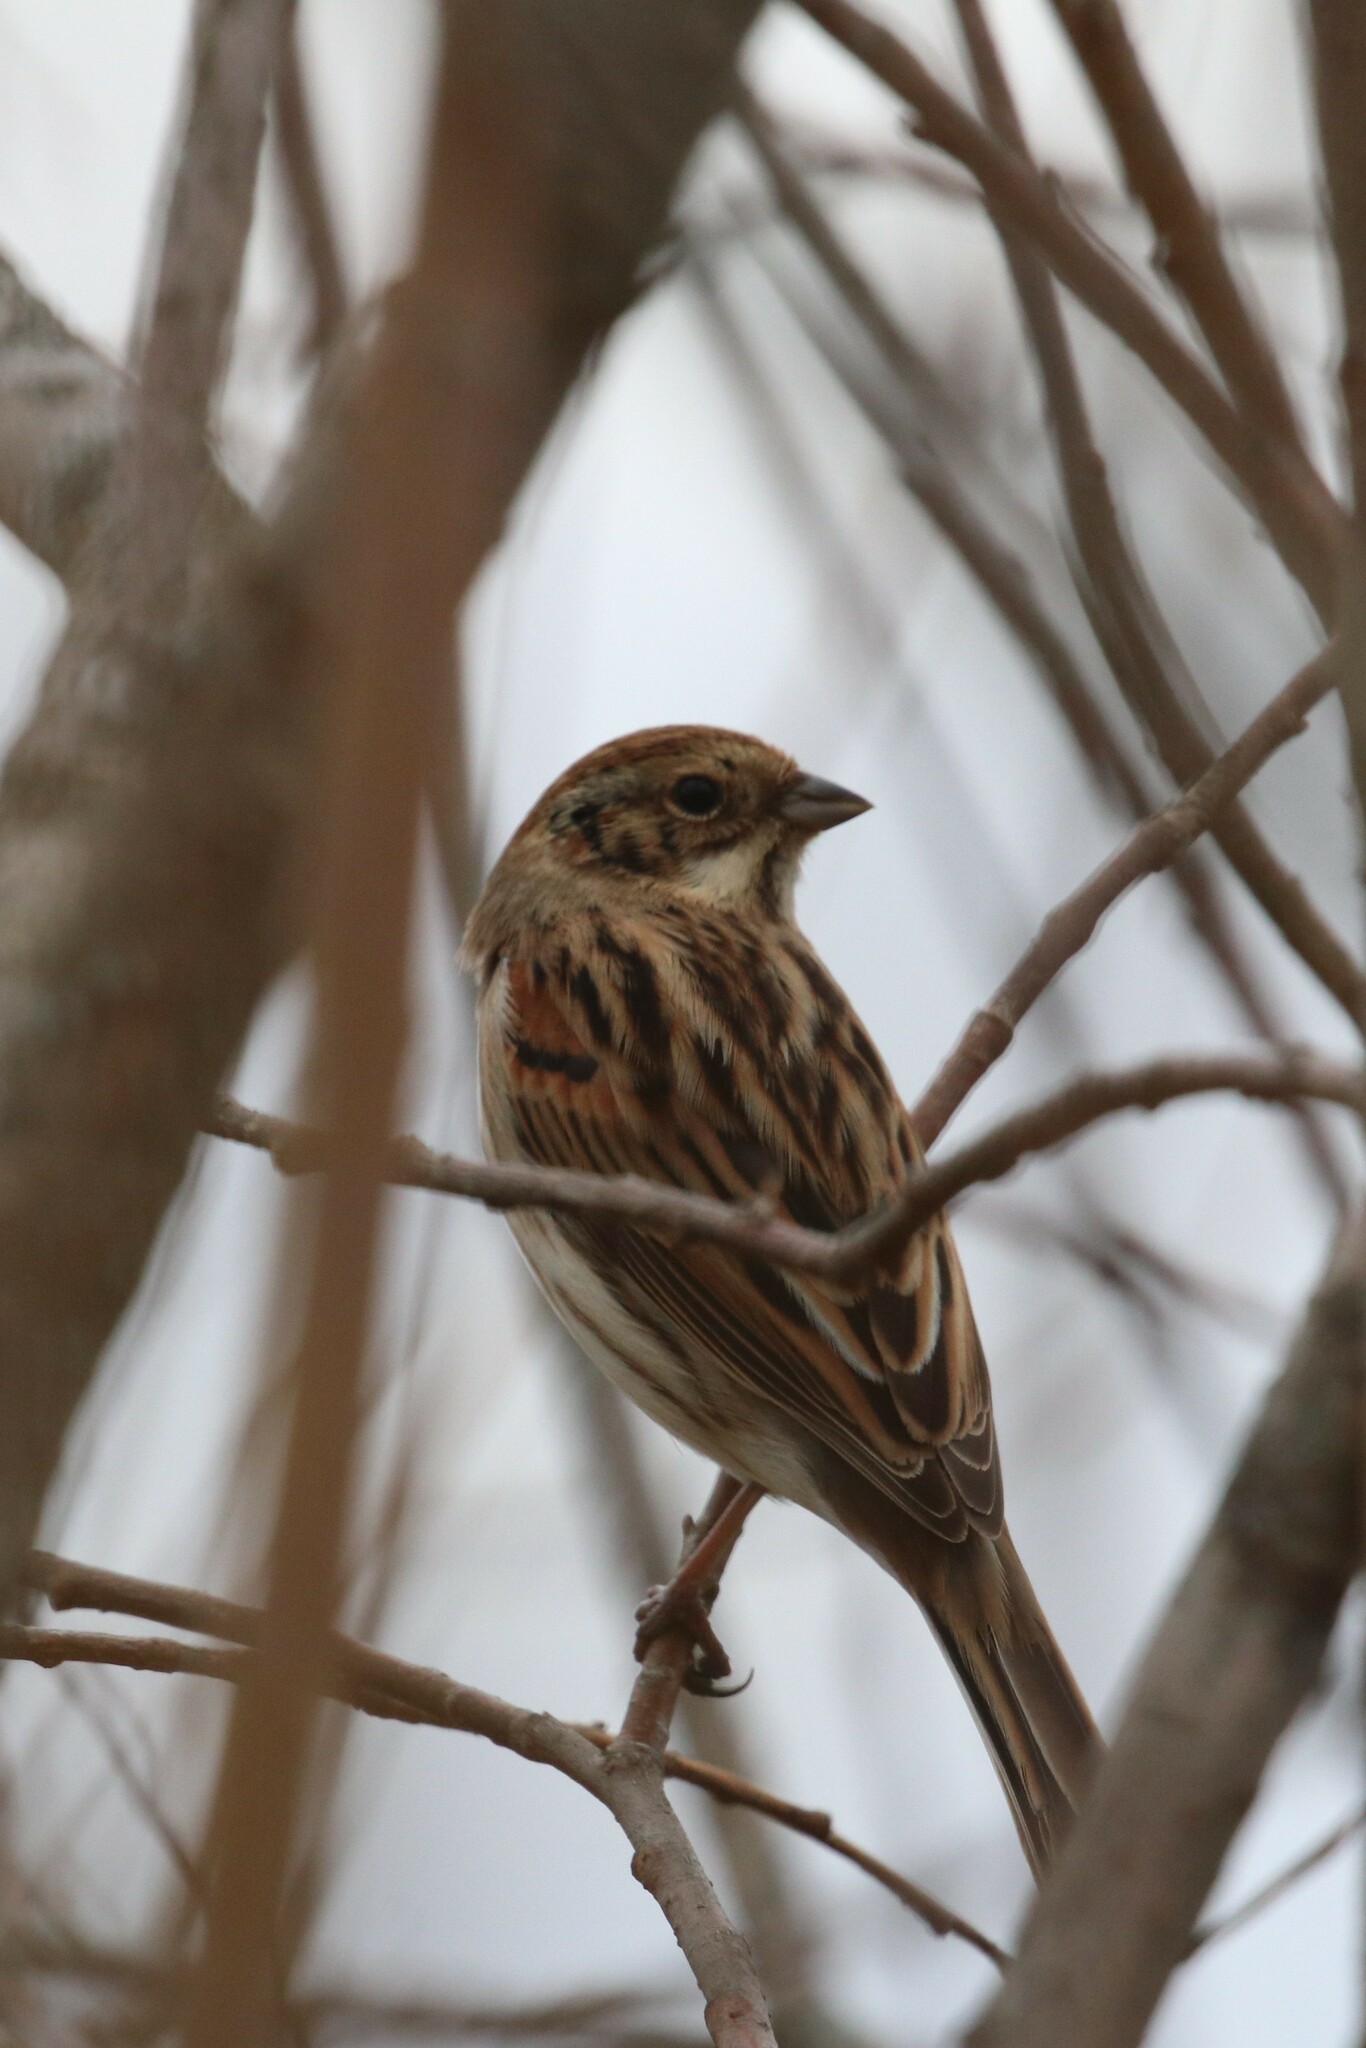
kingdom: Animalia
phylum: Chordata
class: Aves
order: Passeriformes
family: Emberizidae
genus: Emberiza
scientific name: Emberiza schoeniclus
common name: Reed bunting
